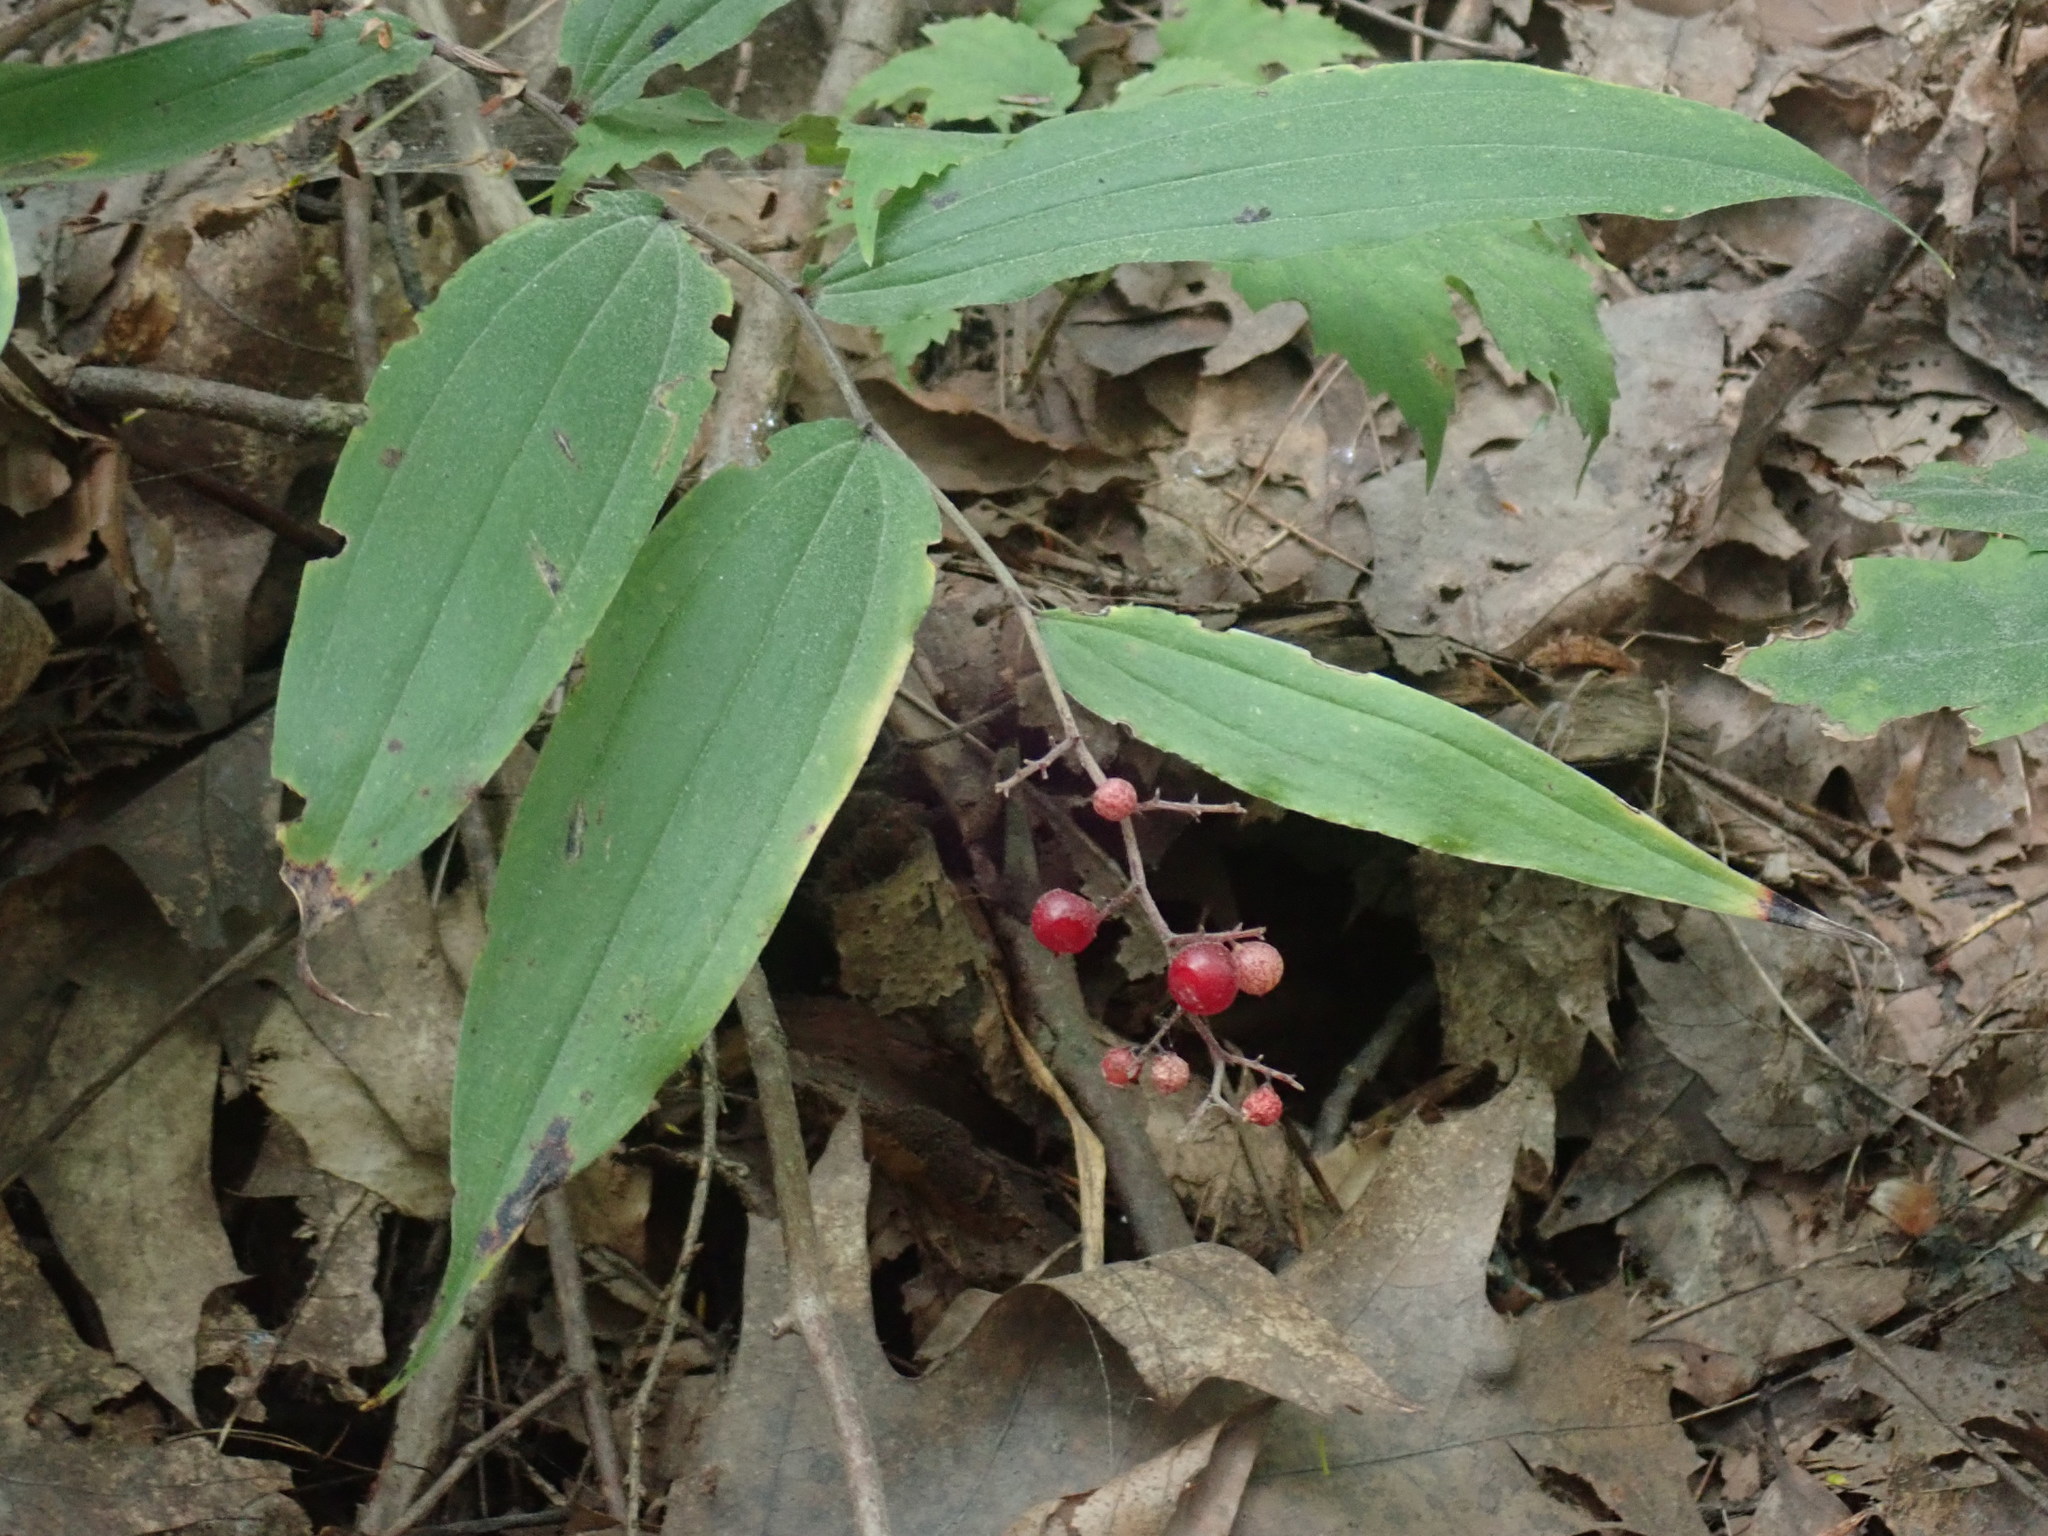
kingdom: Plantae
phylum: Tracheophyta
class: Liliopsida
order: Asparagales
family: Asparagaceae
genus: Maianthemum
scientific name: Maianthemum racemosum
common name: False spikenard
